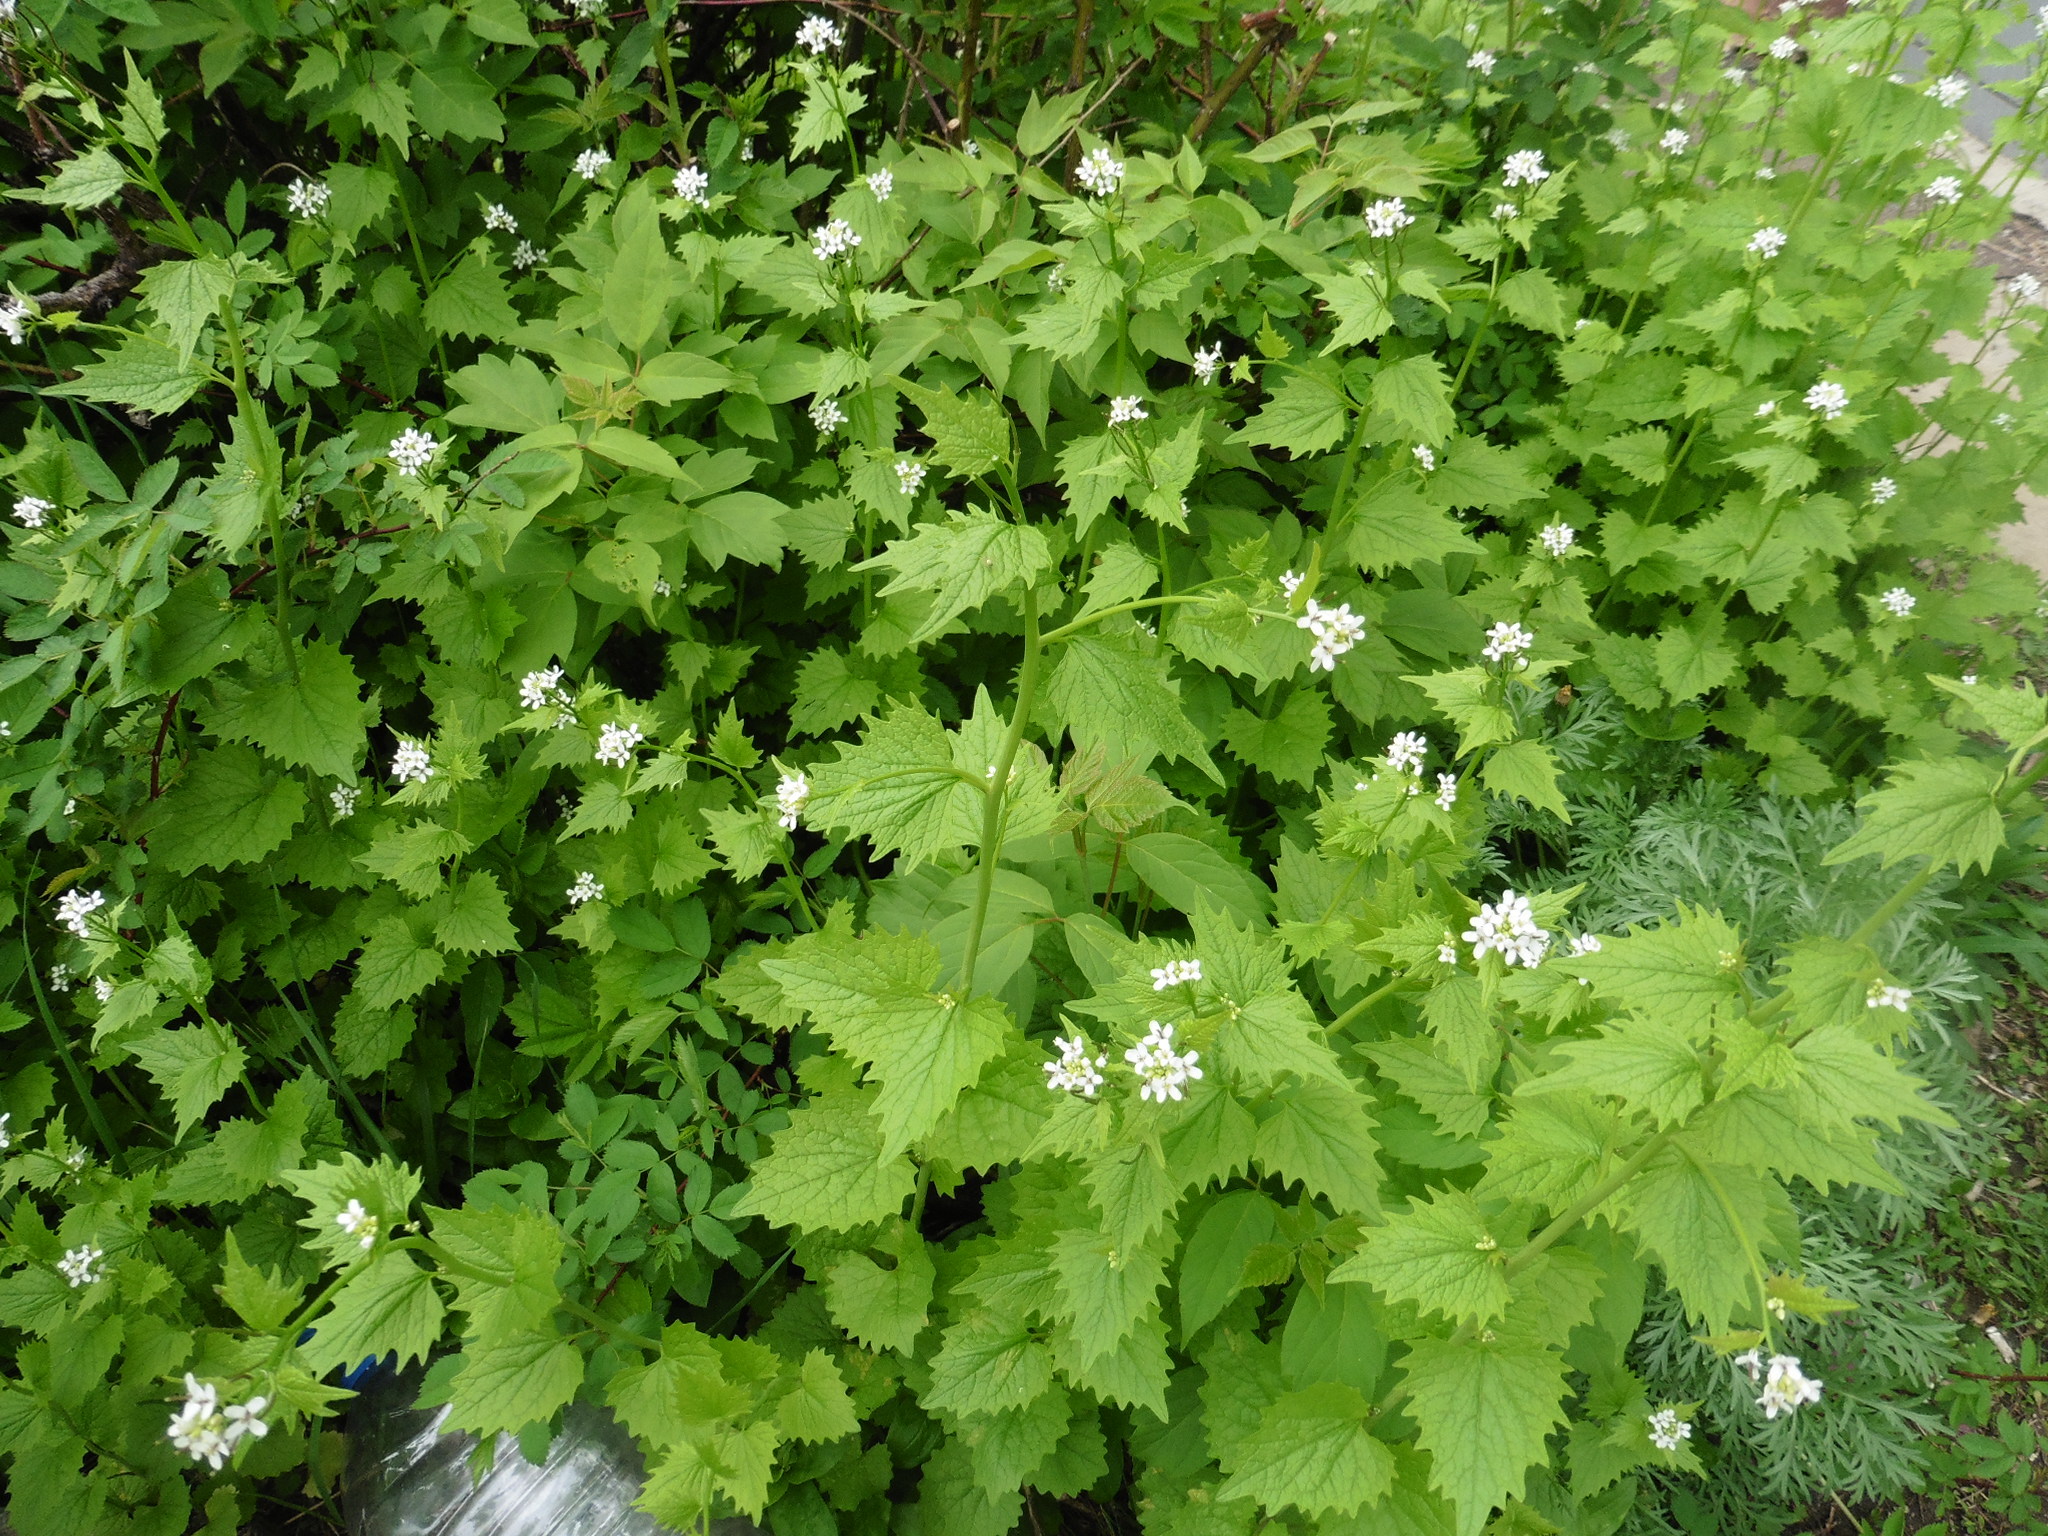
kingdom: Plantae
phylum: Tracheophyta
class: Magnoliopsida
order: Brassicales
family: Brassicaceae
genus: Alliaria
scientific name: Alliaria petiolata
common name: Garlic mustard
